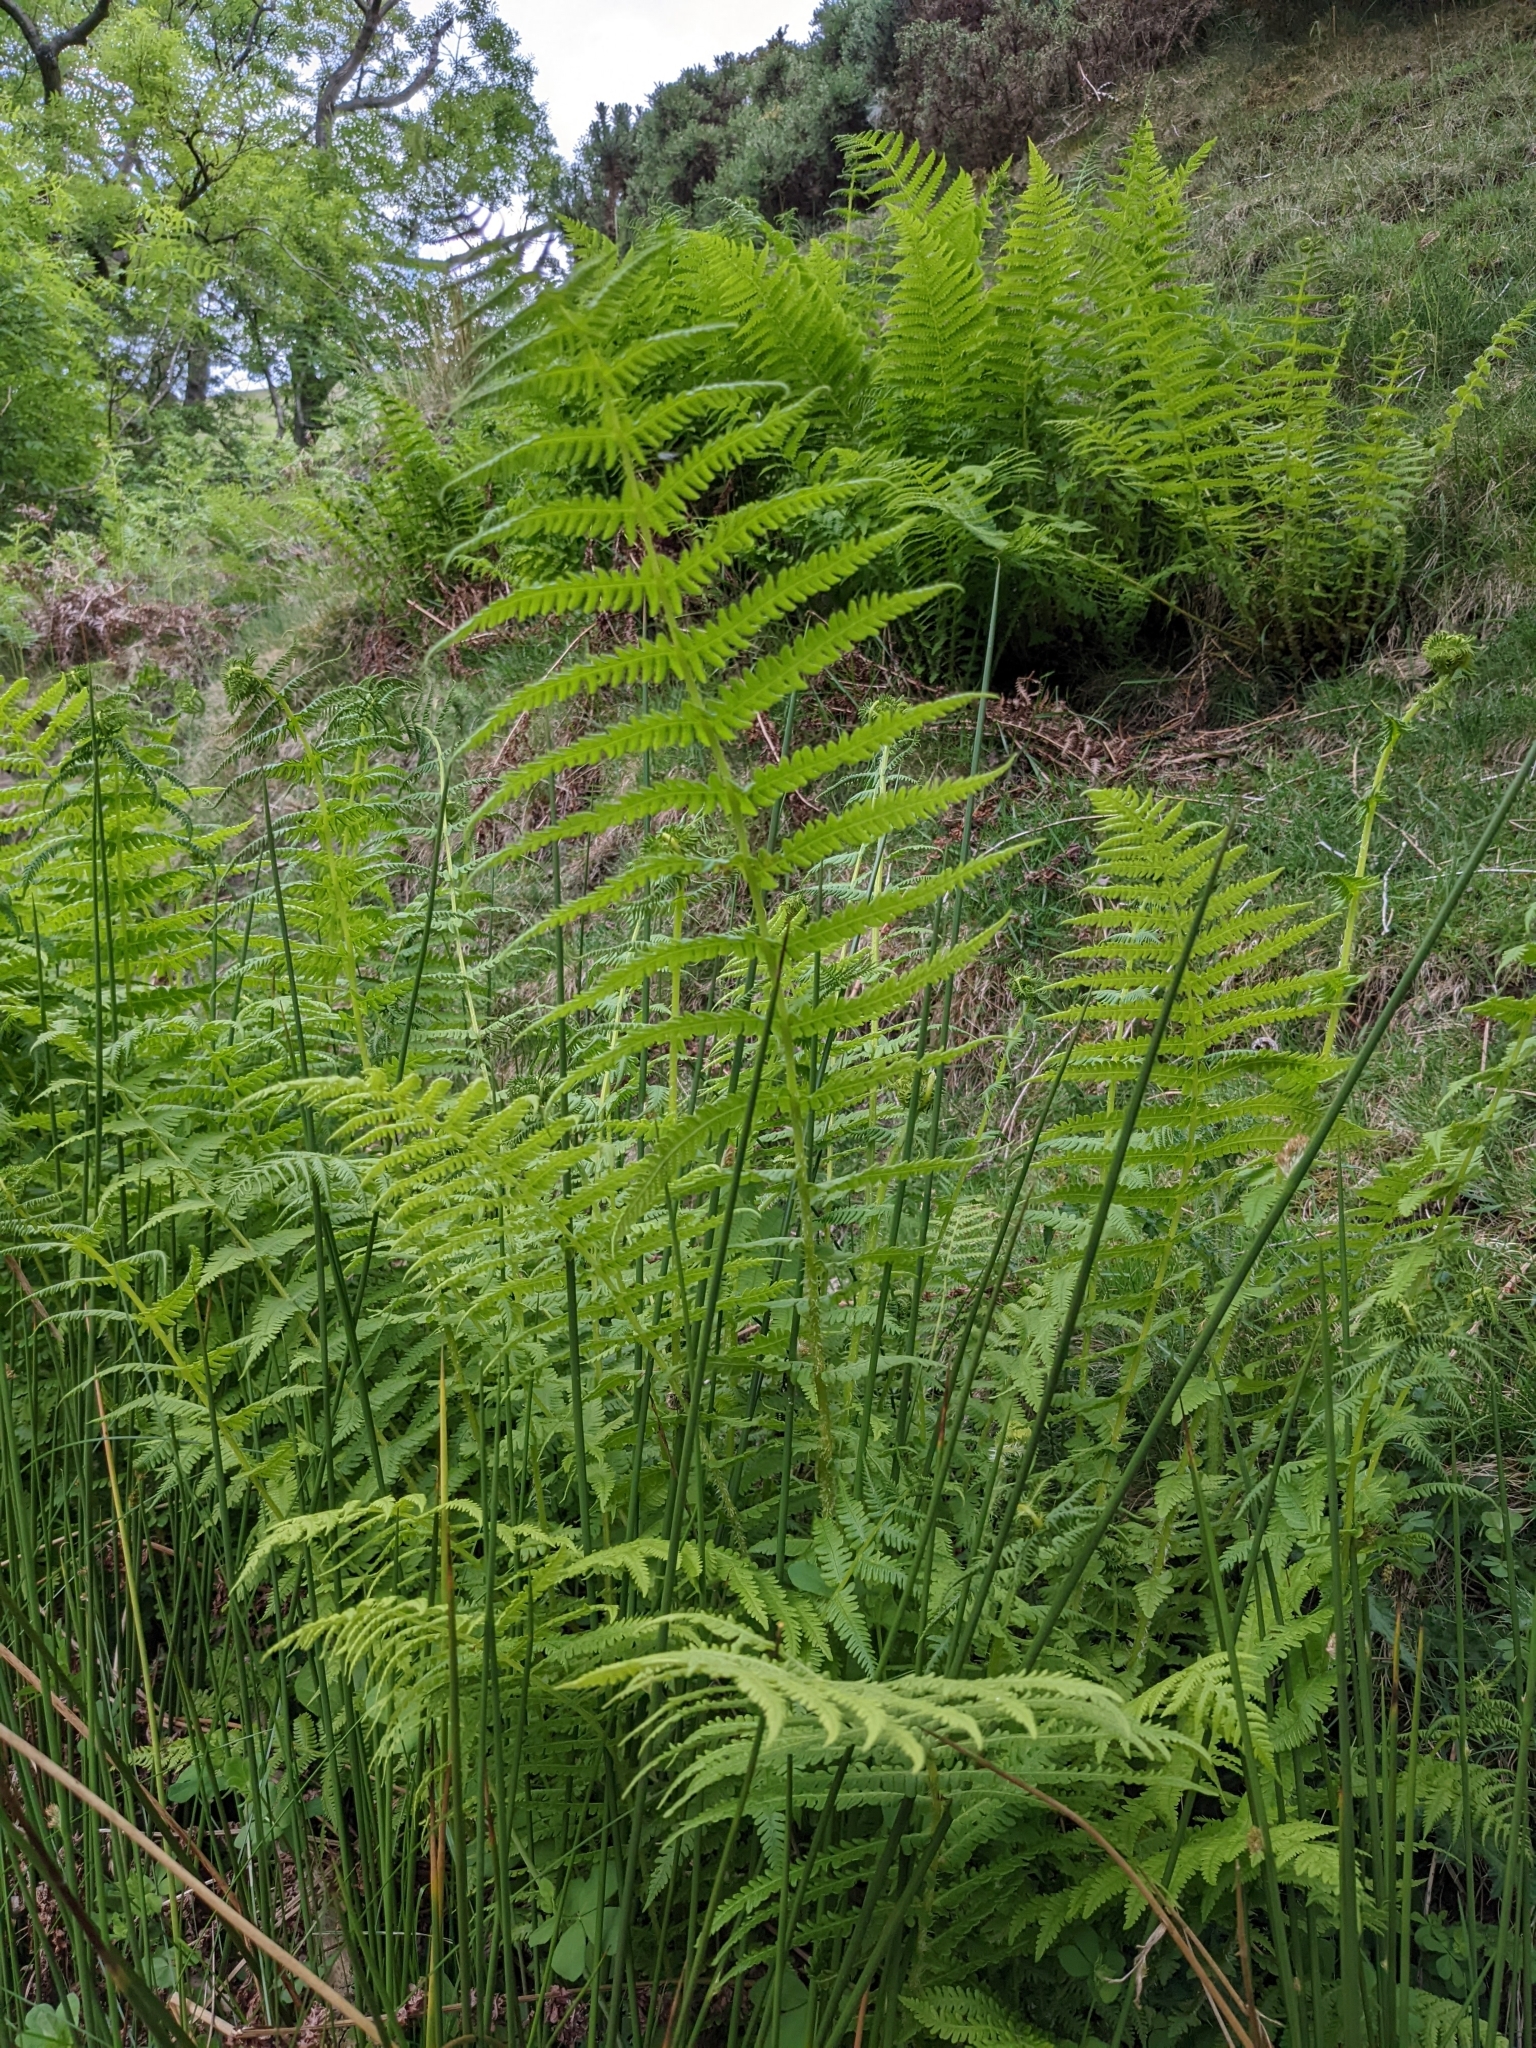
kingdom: Plantae
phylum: Tracheophyta
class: Polypodiopsida
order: Polypodiales
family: Thelypteridaceae
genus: Oreopteris
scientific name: Oreopteris limbosperma
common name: Lemon-scented fern
